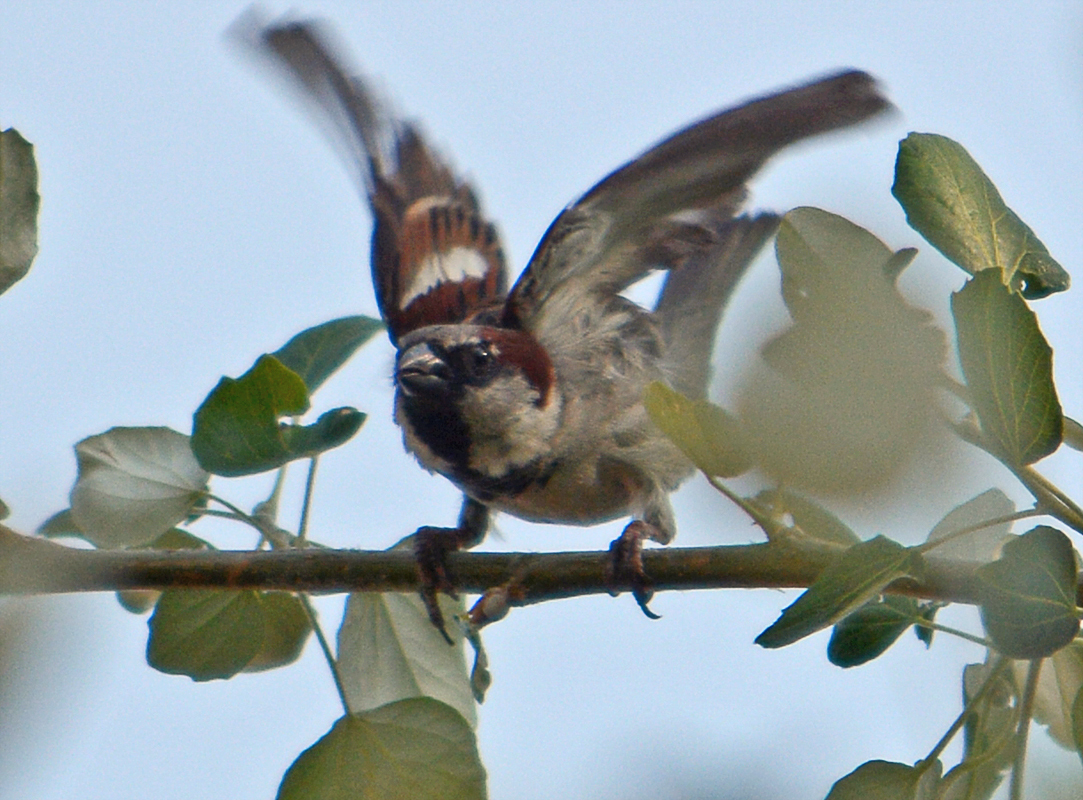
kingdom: Animalia
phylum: Chordata
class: Aves
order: Passeriformes
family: Passeridae
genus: Passer
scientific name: Passer domesticus
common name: House sparrow
